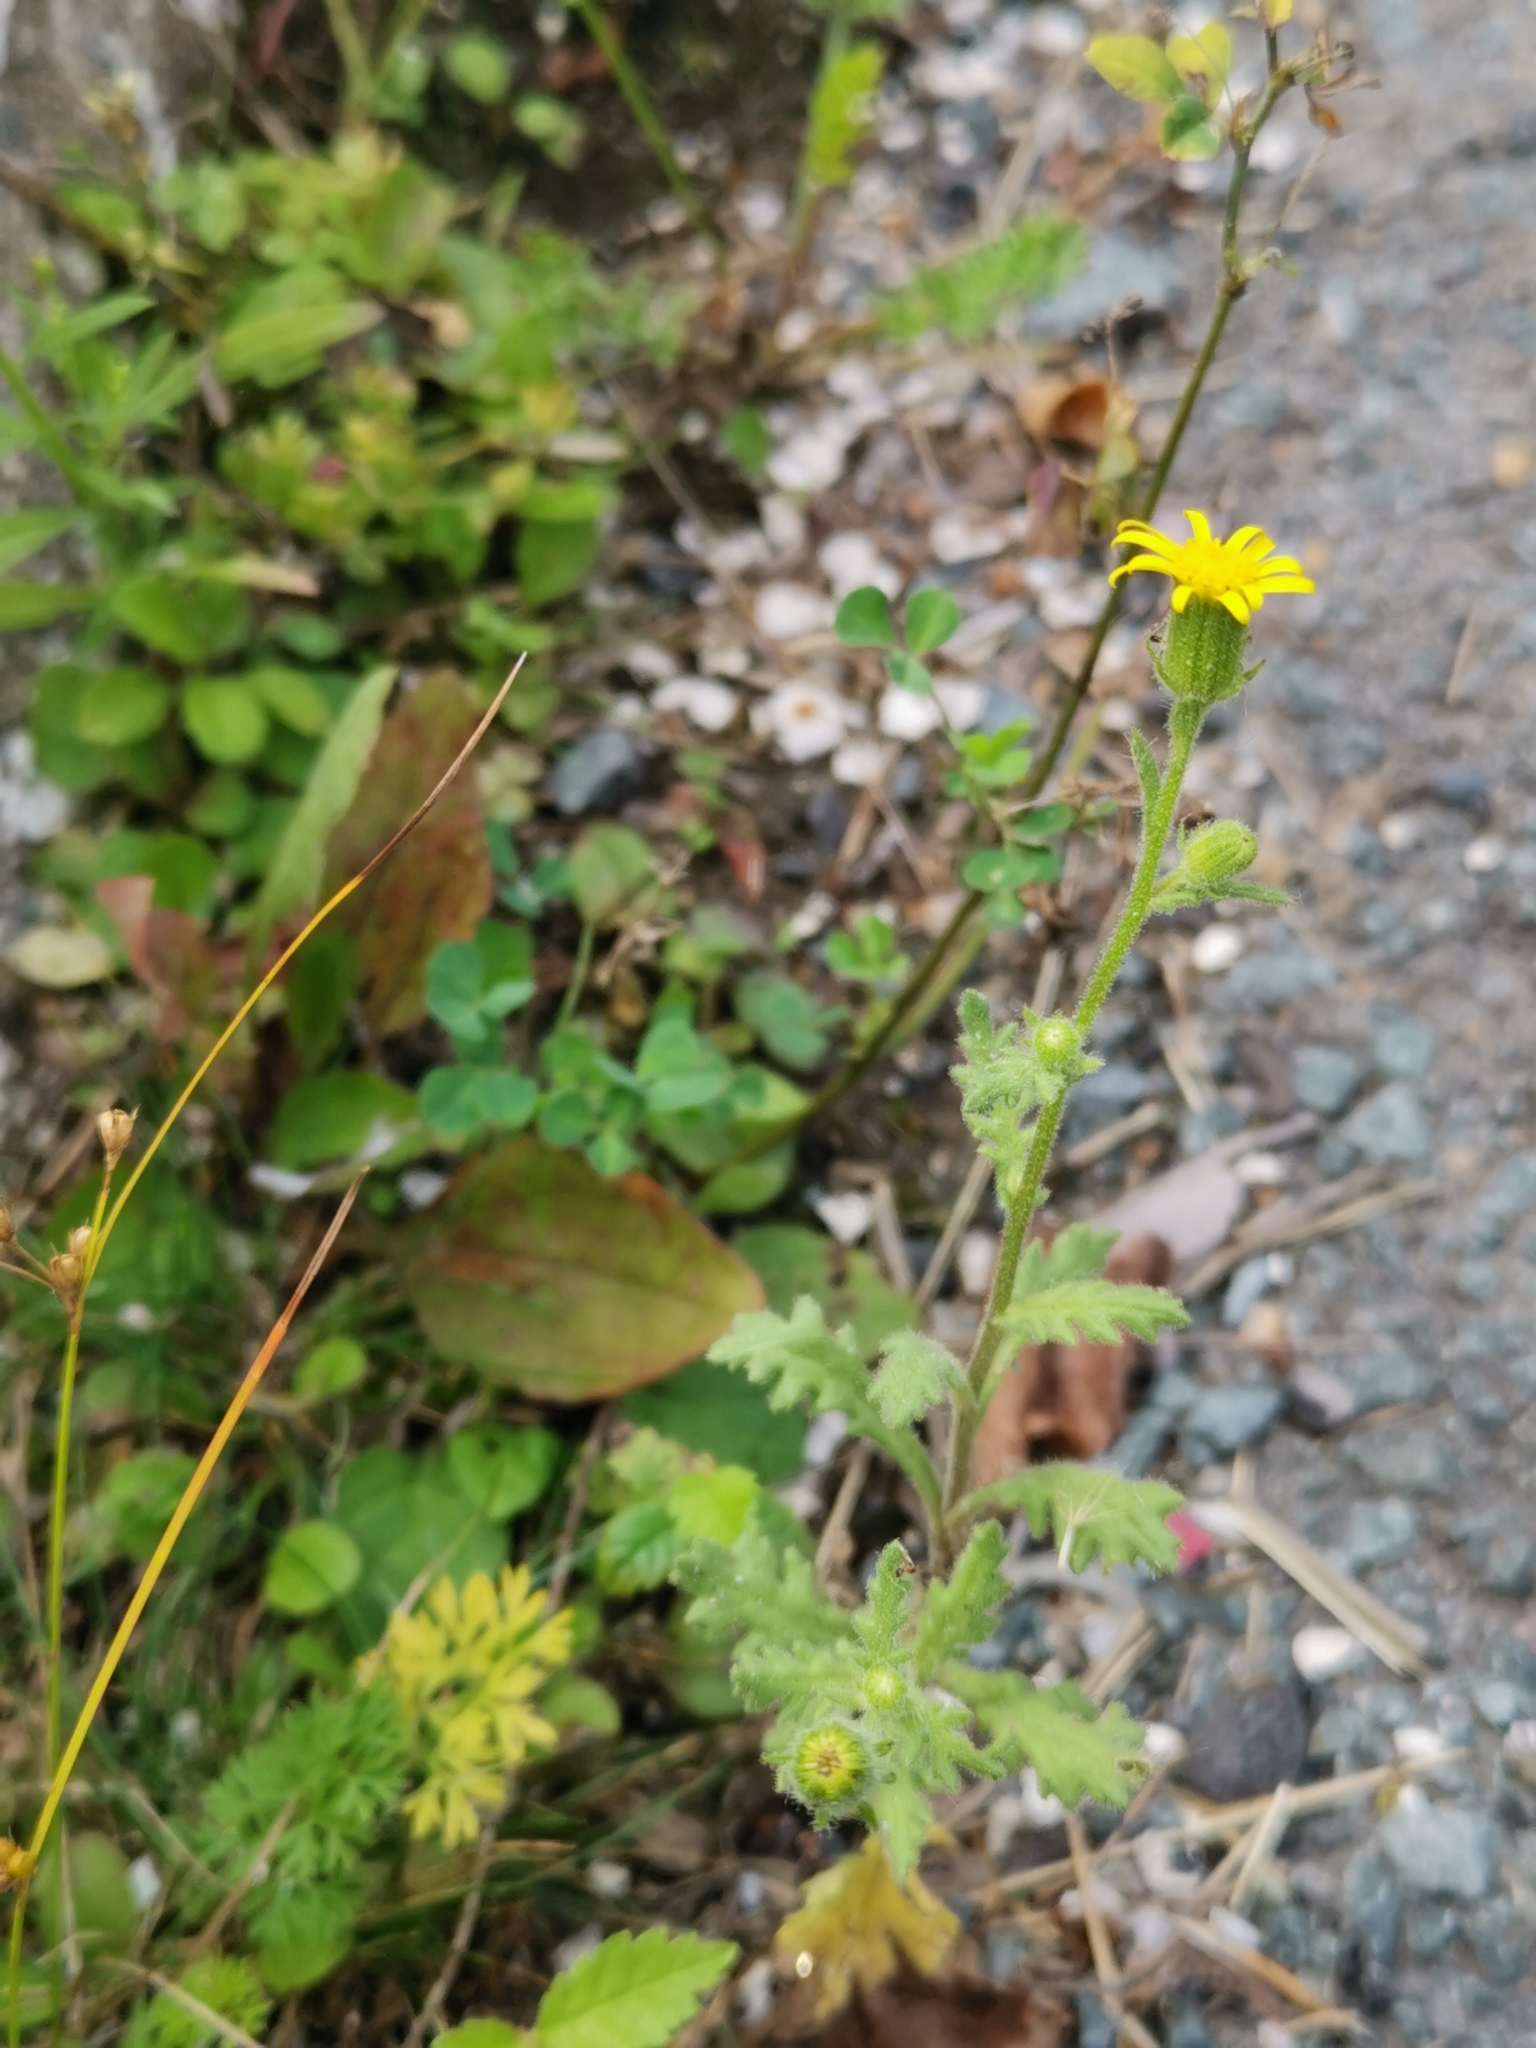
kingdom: Plantae
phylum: Tracheophyta
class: Magnoliopsida
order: Asterales
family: Asteraceae
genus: Senecio
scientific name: Senecio viscosus
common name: Sticky groundsel
